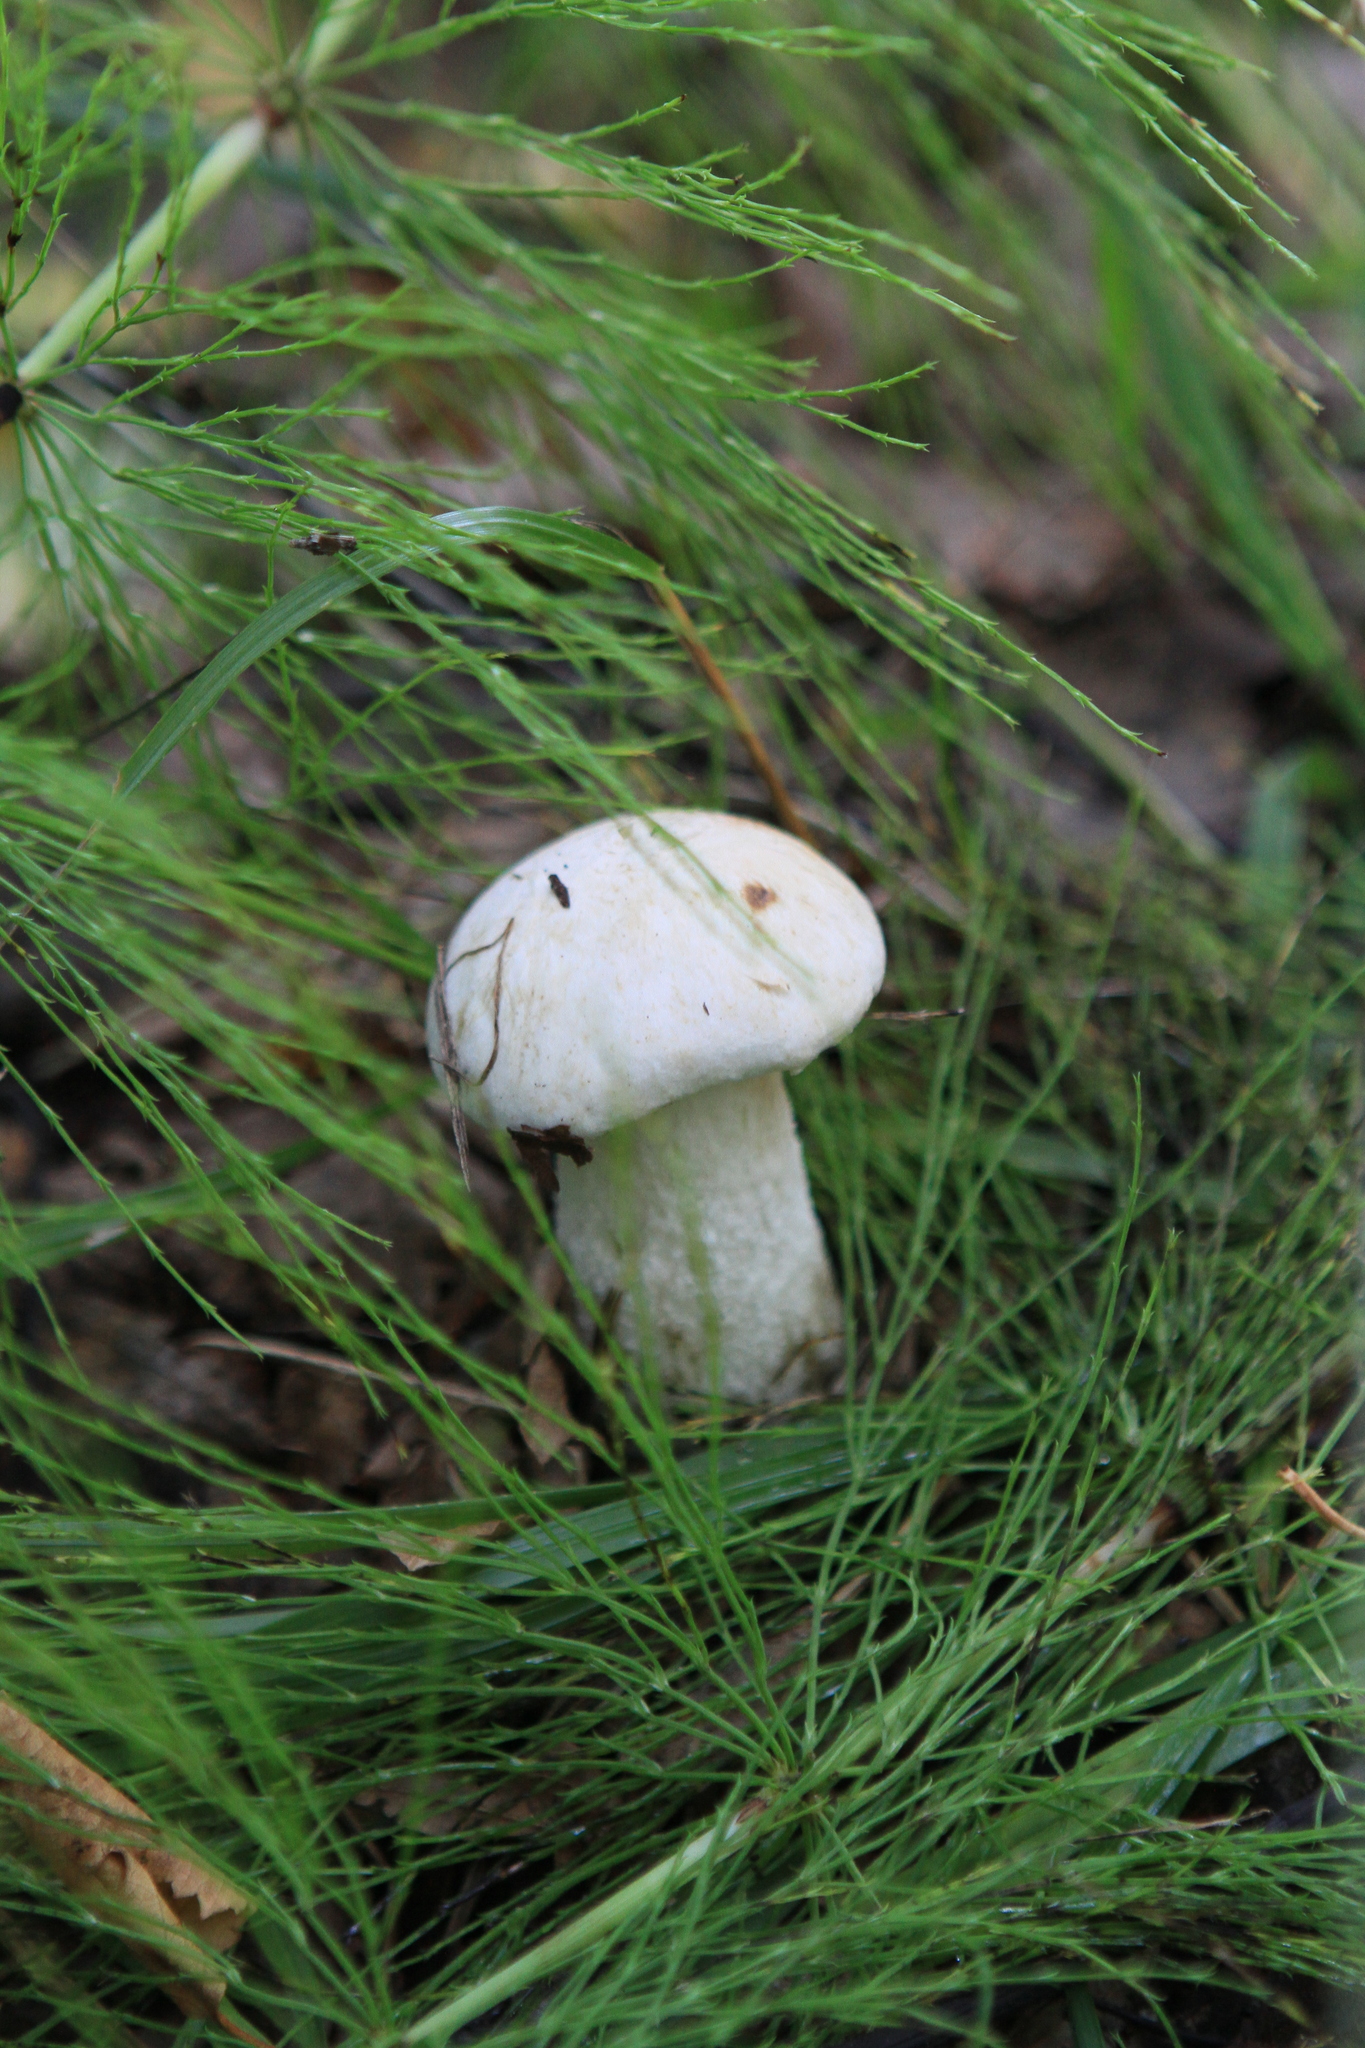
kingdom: Fungi
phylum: Basidiomycota
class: Agaricomycetes
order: Boletales
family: Boletaceae
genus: Leccinum
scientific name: Leccinum versipelle
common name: Orange birch bolete
